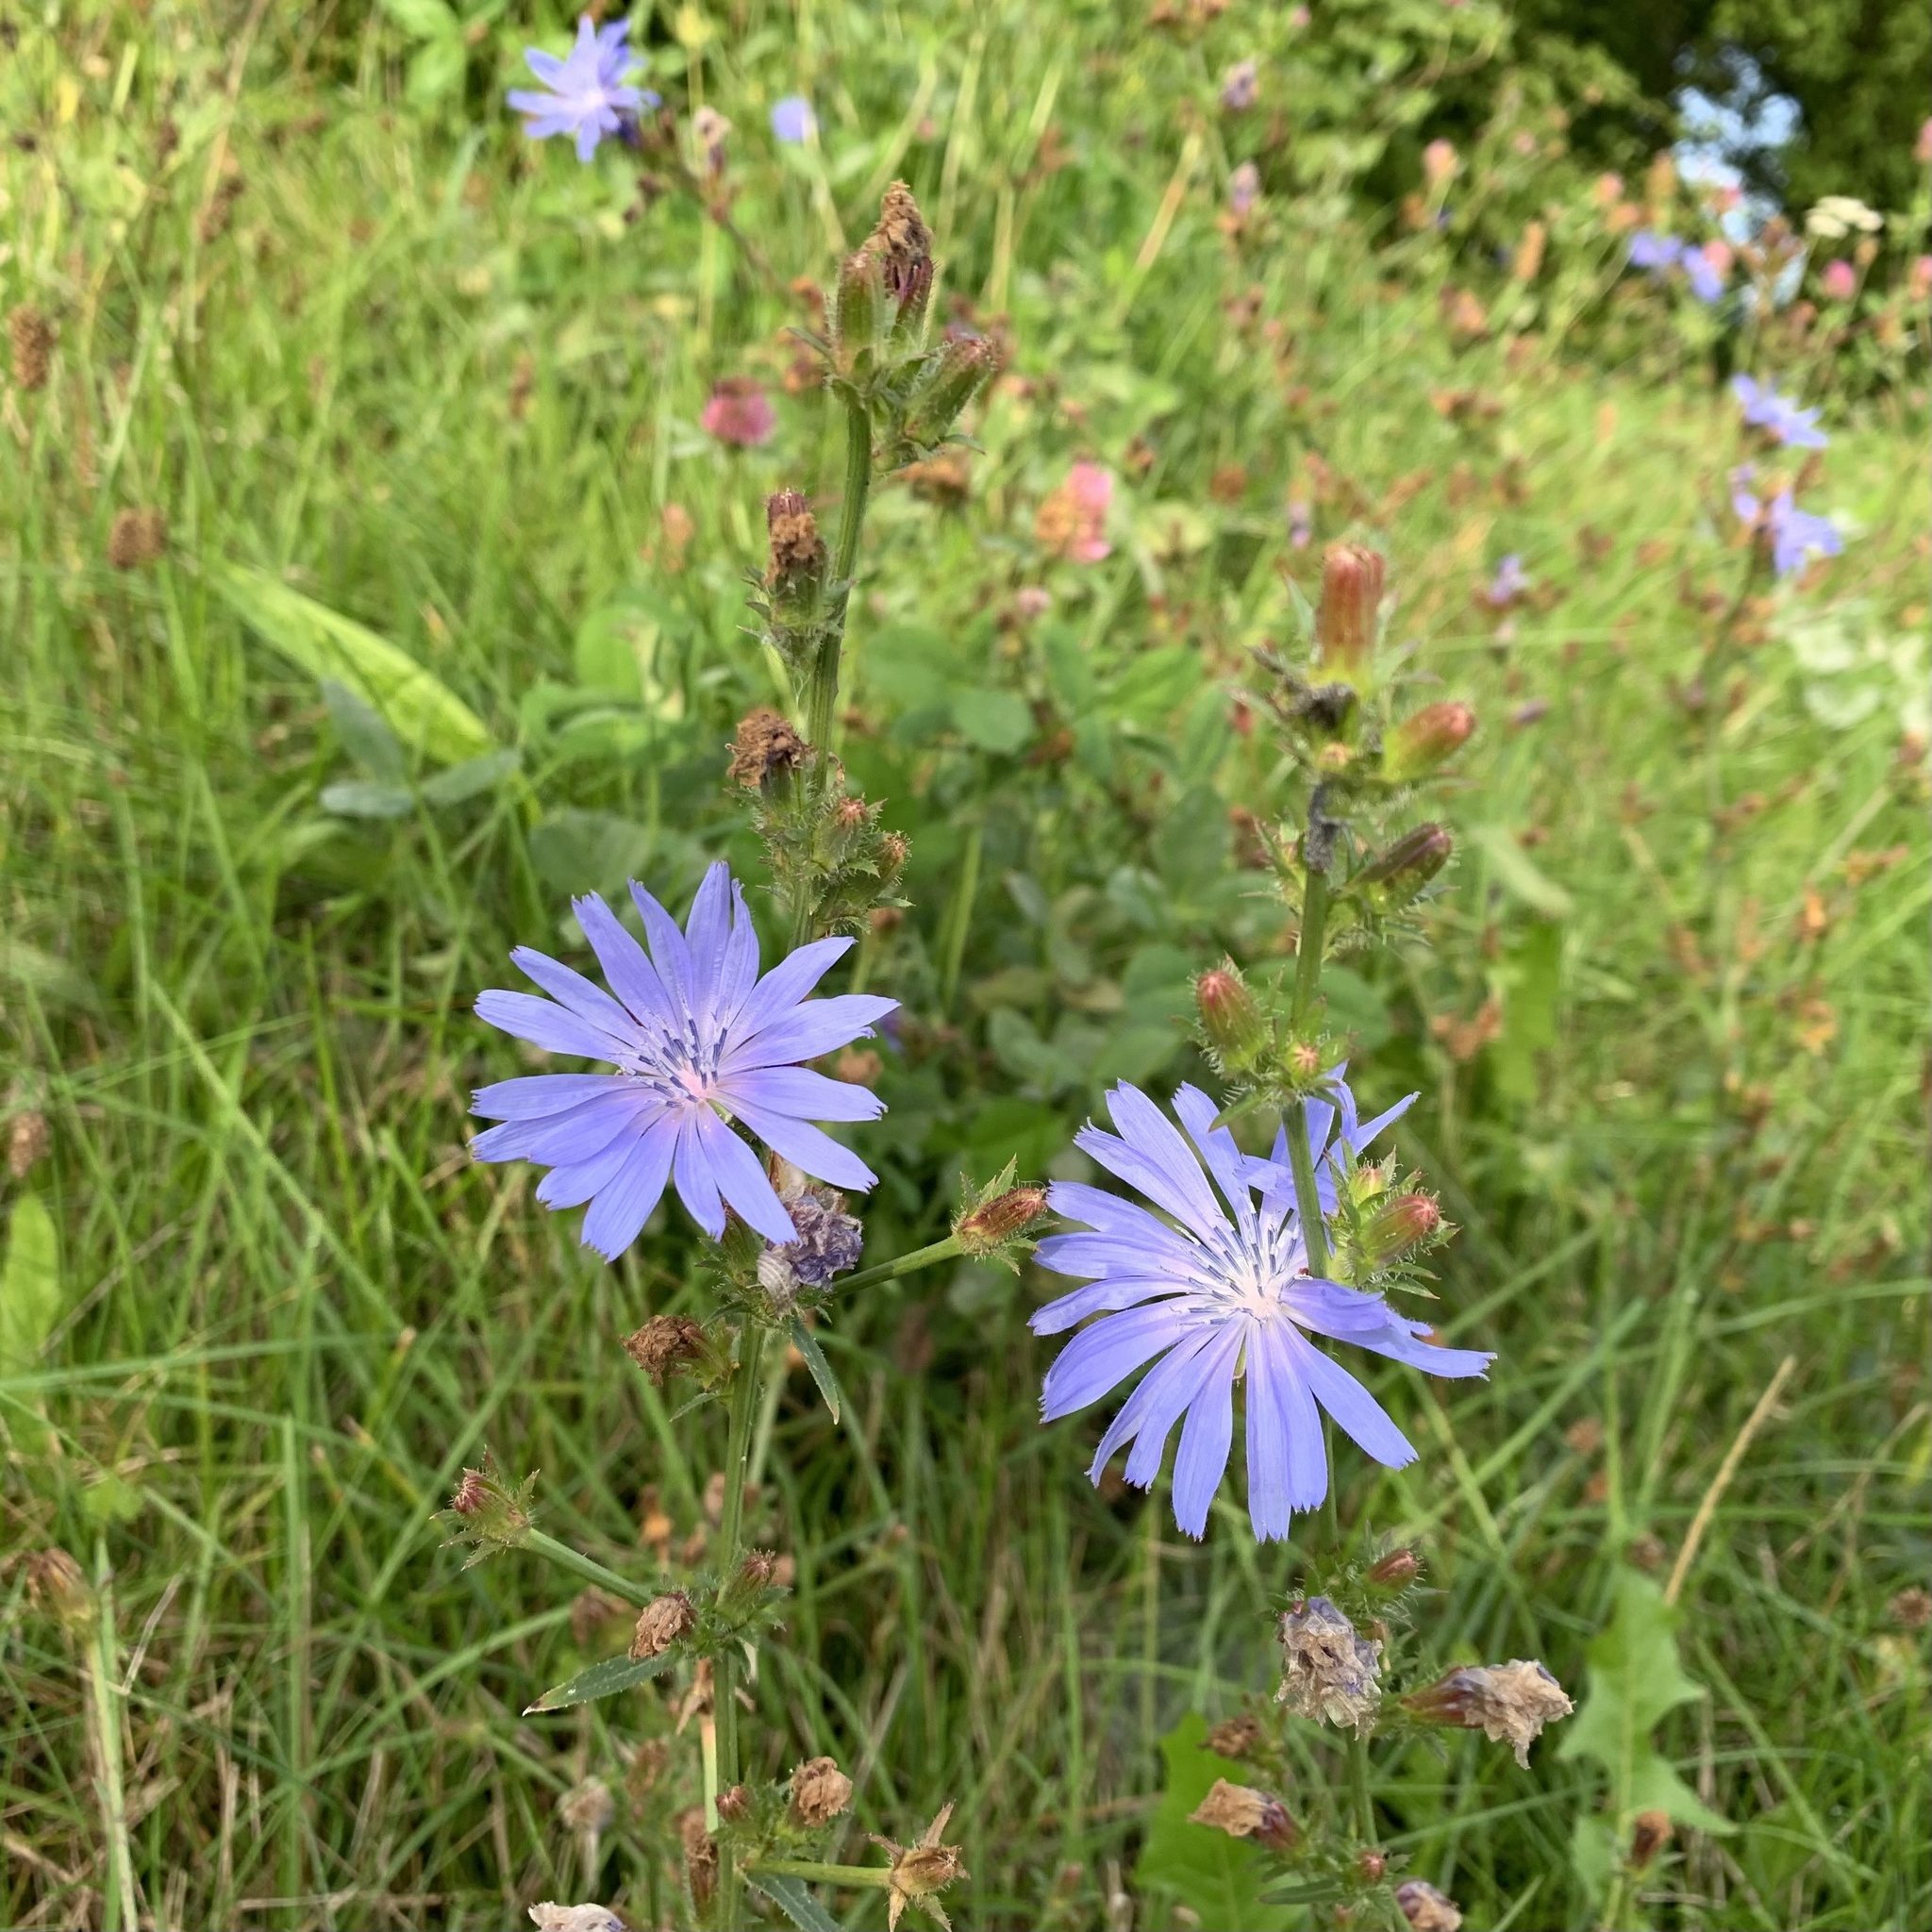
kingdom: Plantae
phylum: Tracheophyta
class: Magnoliopsida
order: Asterales
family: Asteraceae
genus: Cichorium
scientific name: Cichorium intybus
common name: Chicory
